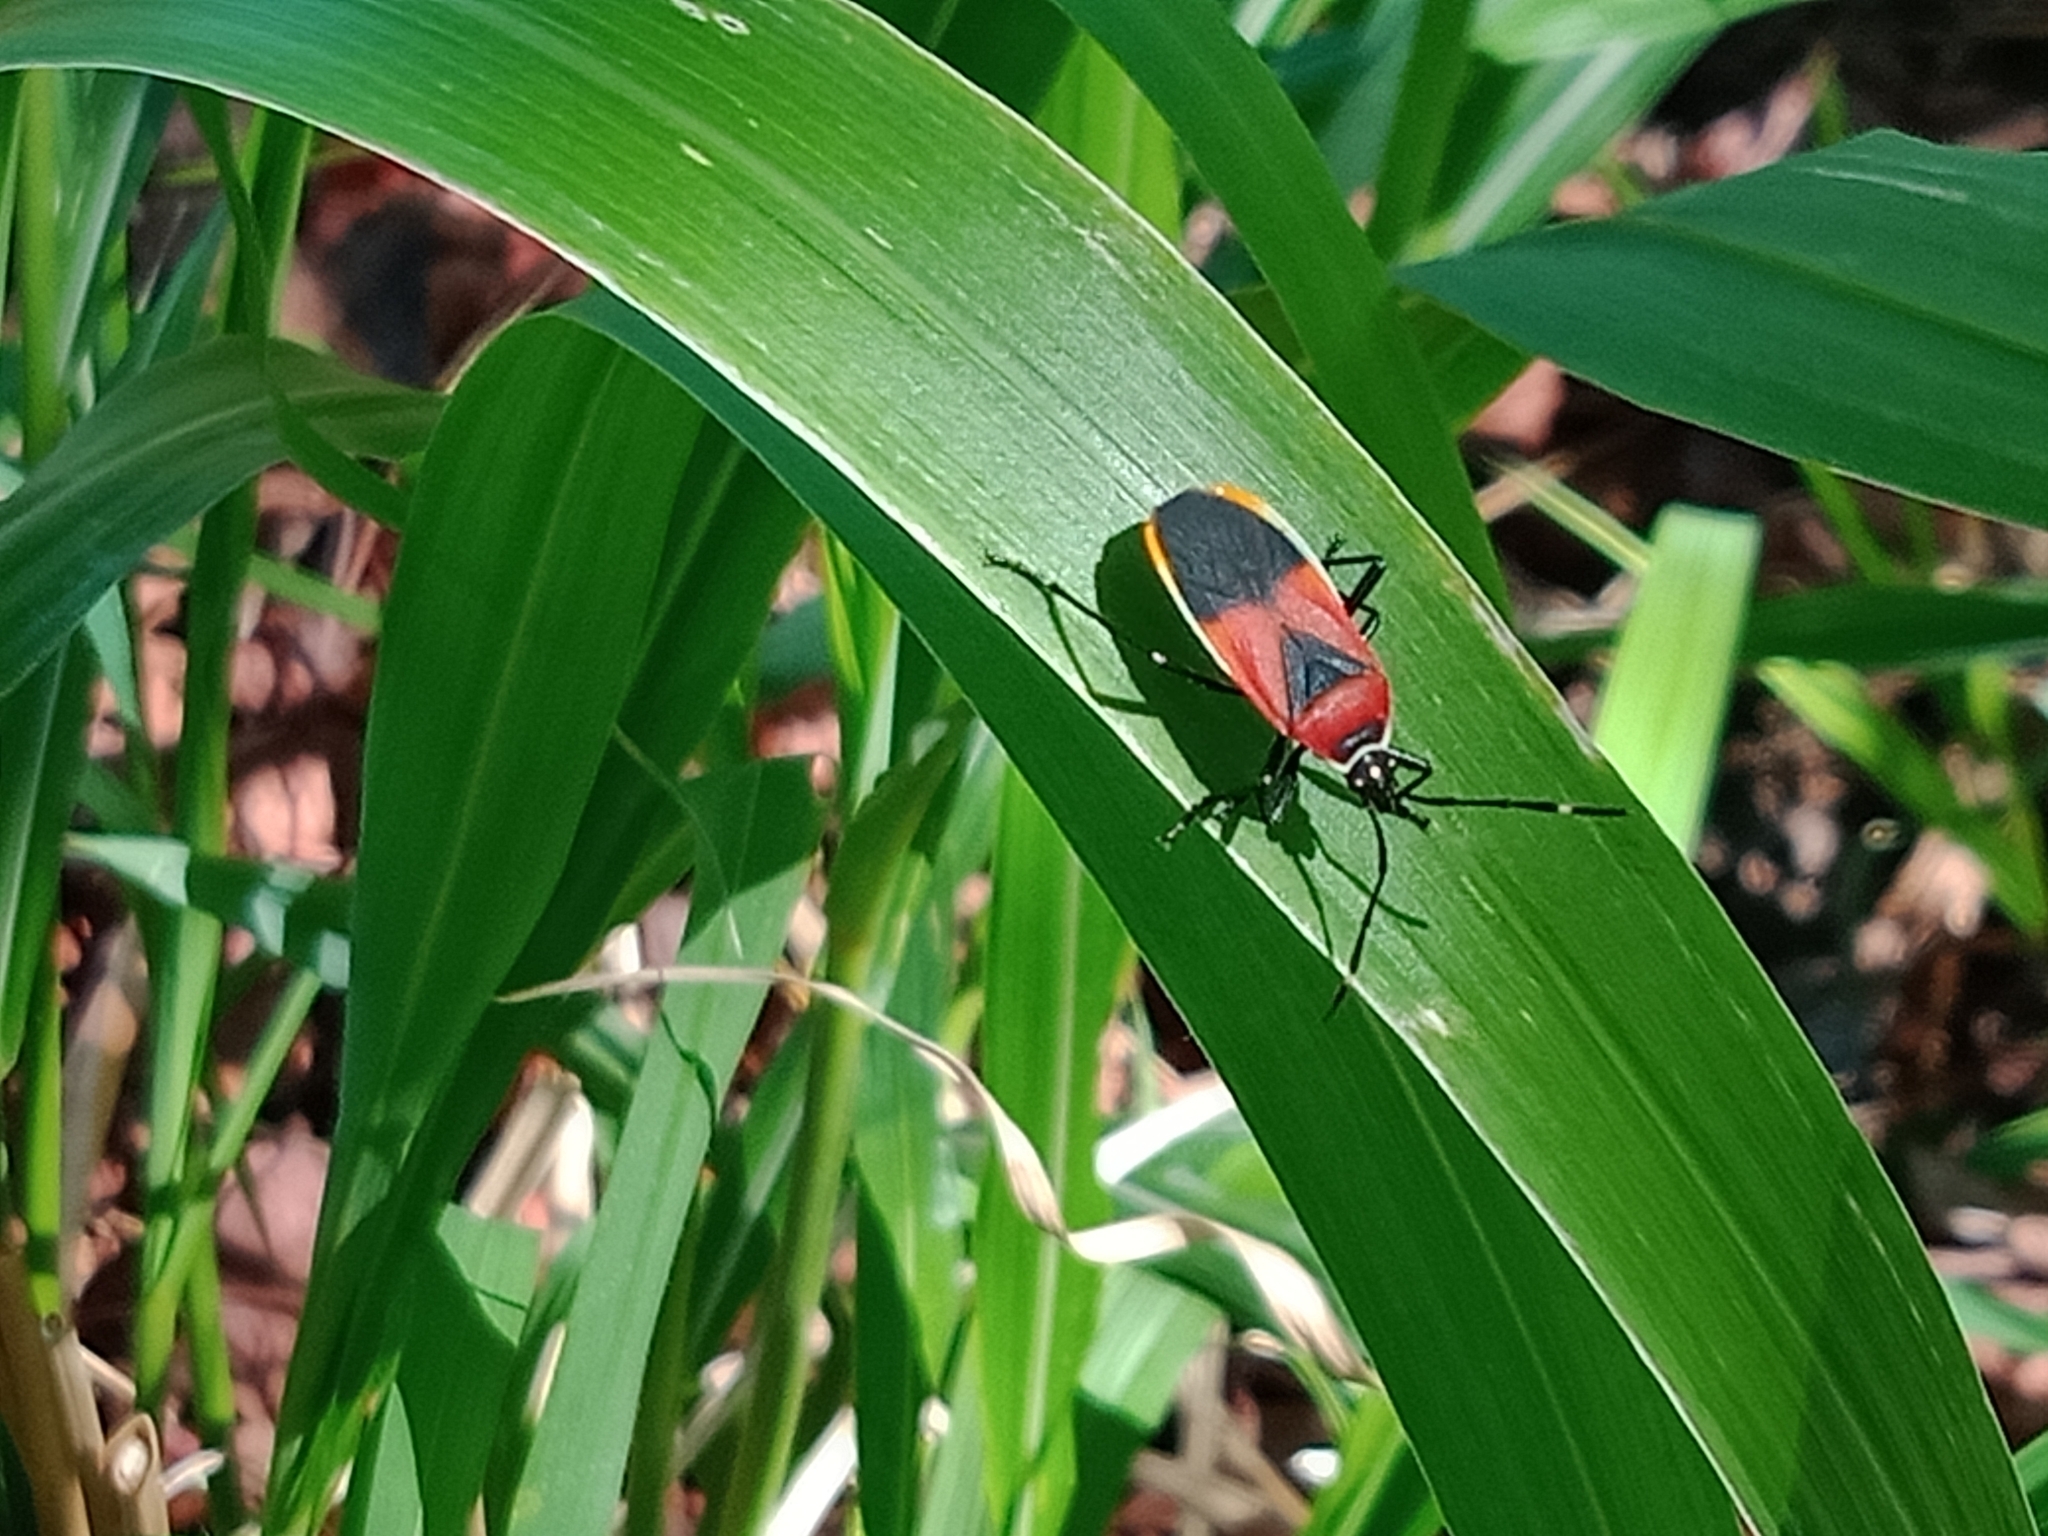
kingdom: Animalia
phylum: Arthropoda
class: Insecta
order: Hemiptera
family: Pyrrhocoridae
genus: Dindymus
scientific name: Dindymus
